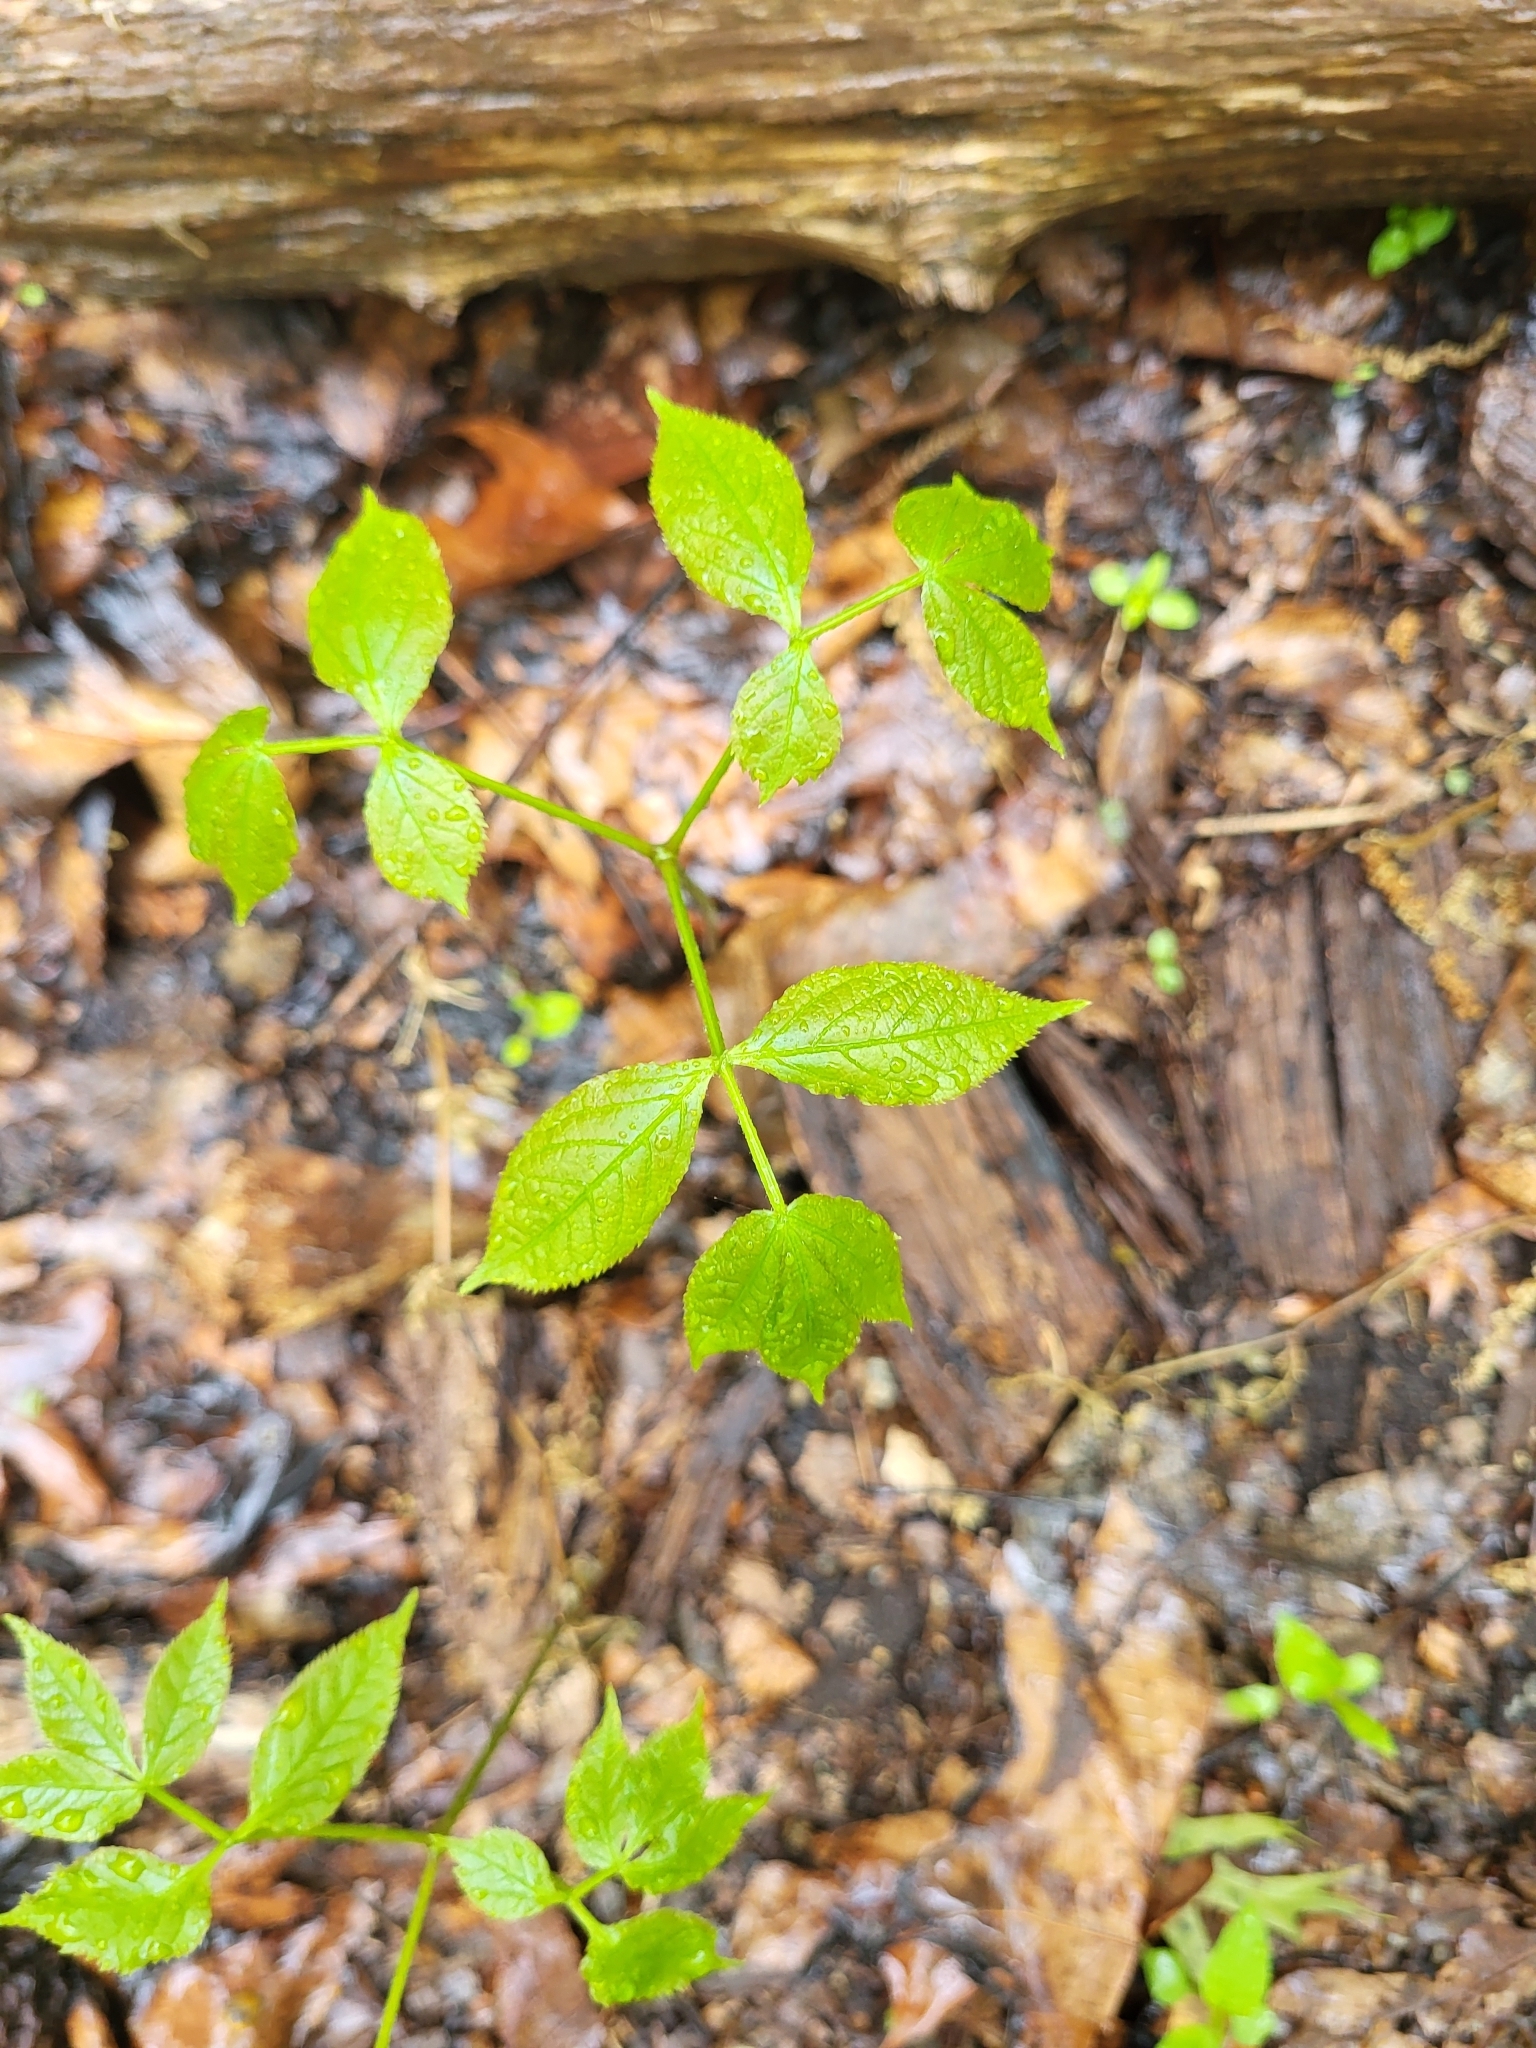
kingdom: Plantae
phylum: Tracheophyta
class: Magnoliopsida
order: Apiales
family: Araliaceae
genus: Aralia
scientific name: Aralia nudicaulis
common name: Wild sarsaparilla
